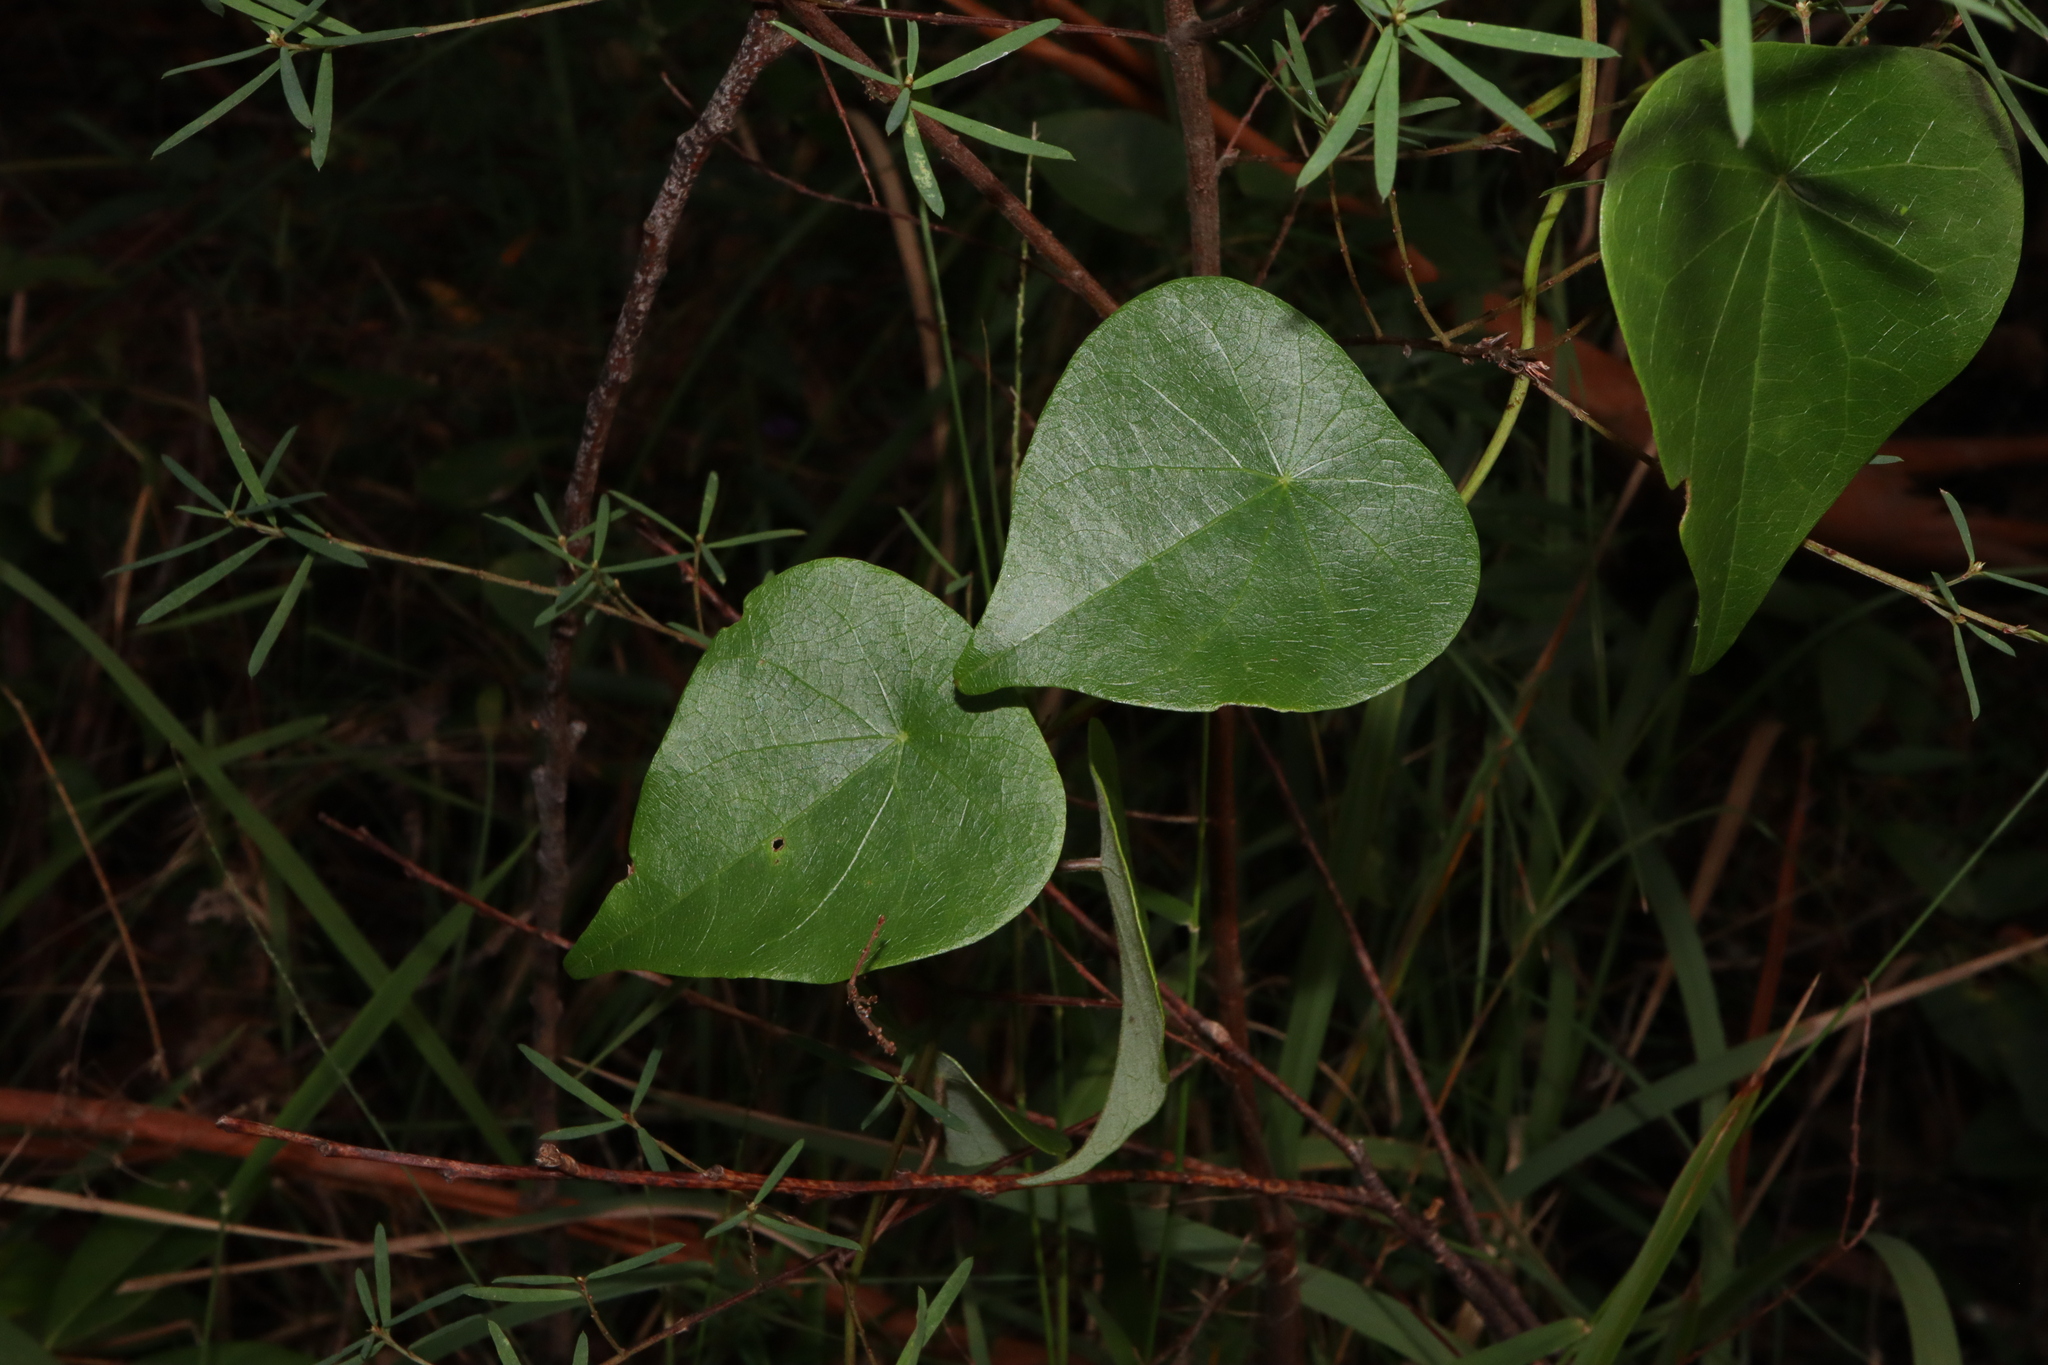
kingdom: Plantae
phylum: Tracheophyta
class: Magnoliopsida
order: Ranunculales
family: Menispermaceae
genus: Stephania
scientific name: Stephania japonica
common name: Snake vine
